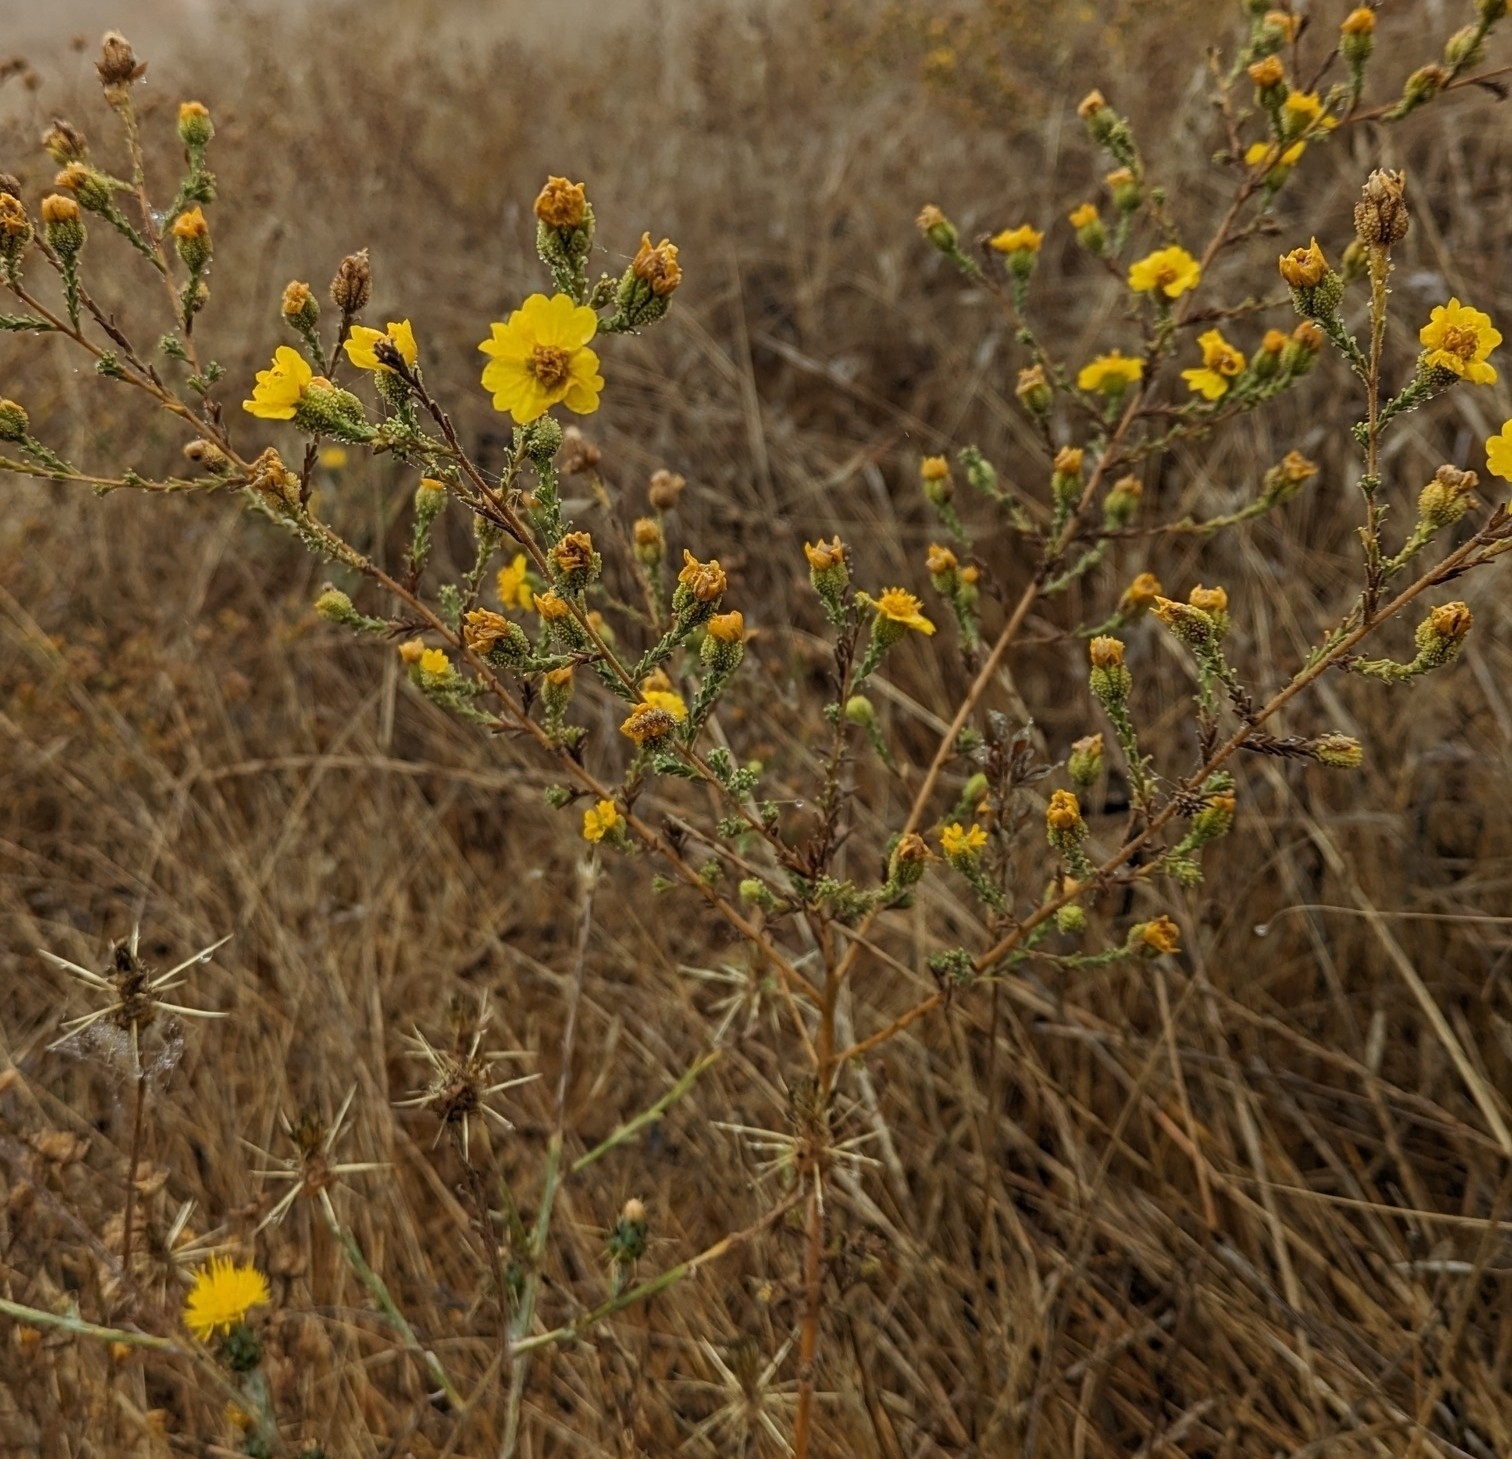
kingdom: Plantae
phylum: Tracheophyta
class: Magnoliopsida
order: Asterales
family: Asteraceae
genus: Holocarpha
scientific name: Holocarpha heermannii
